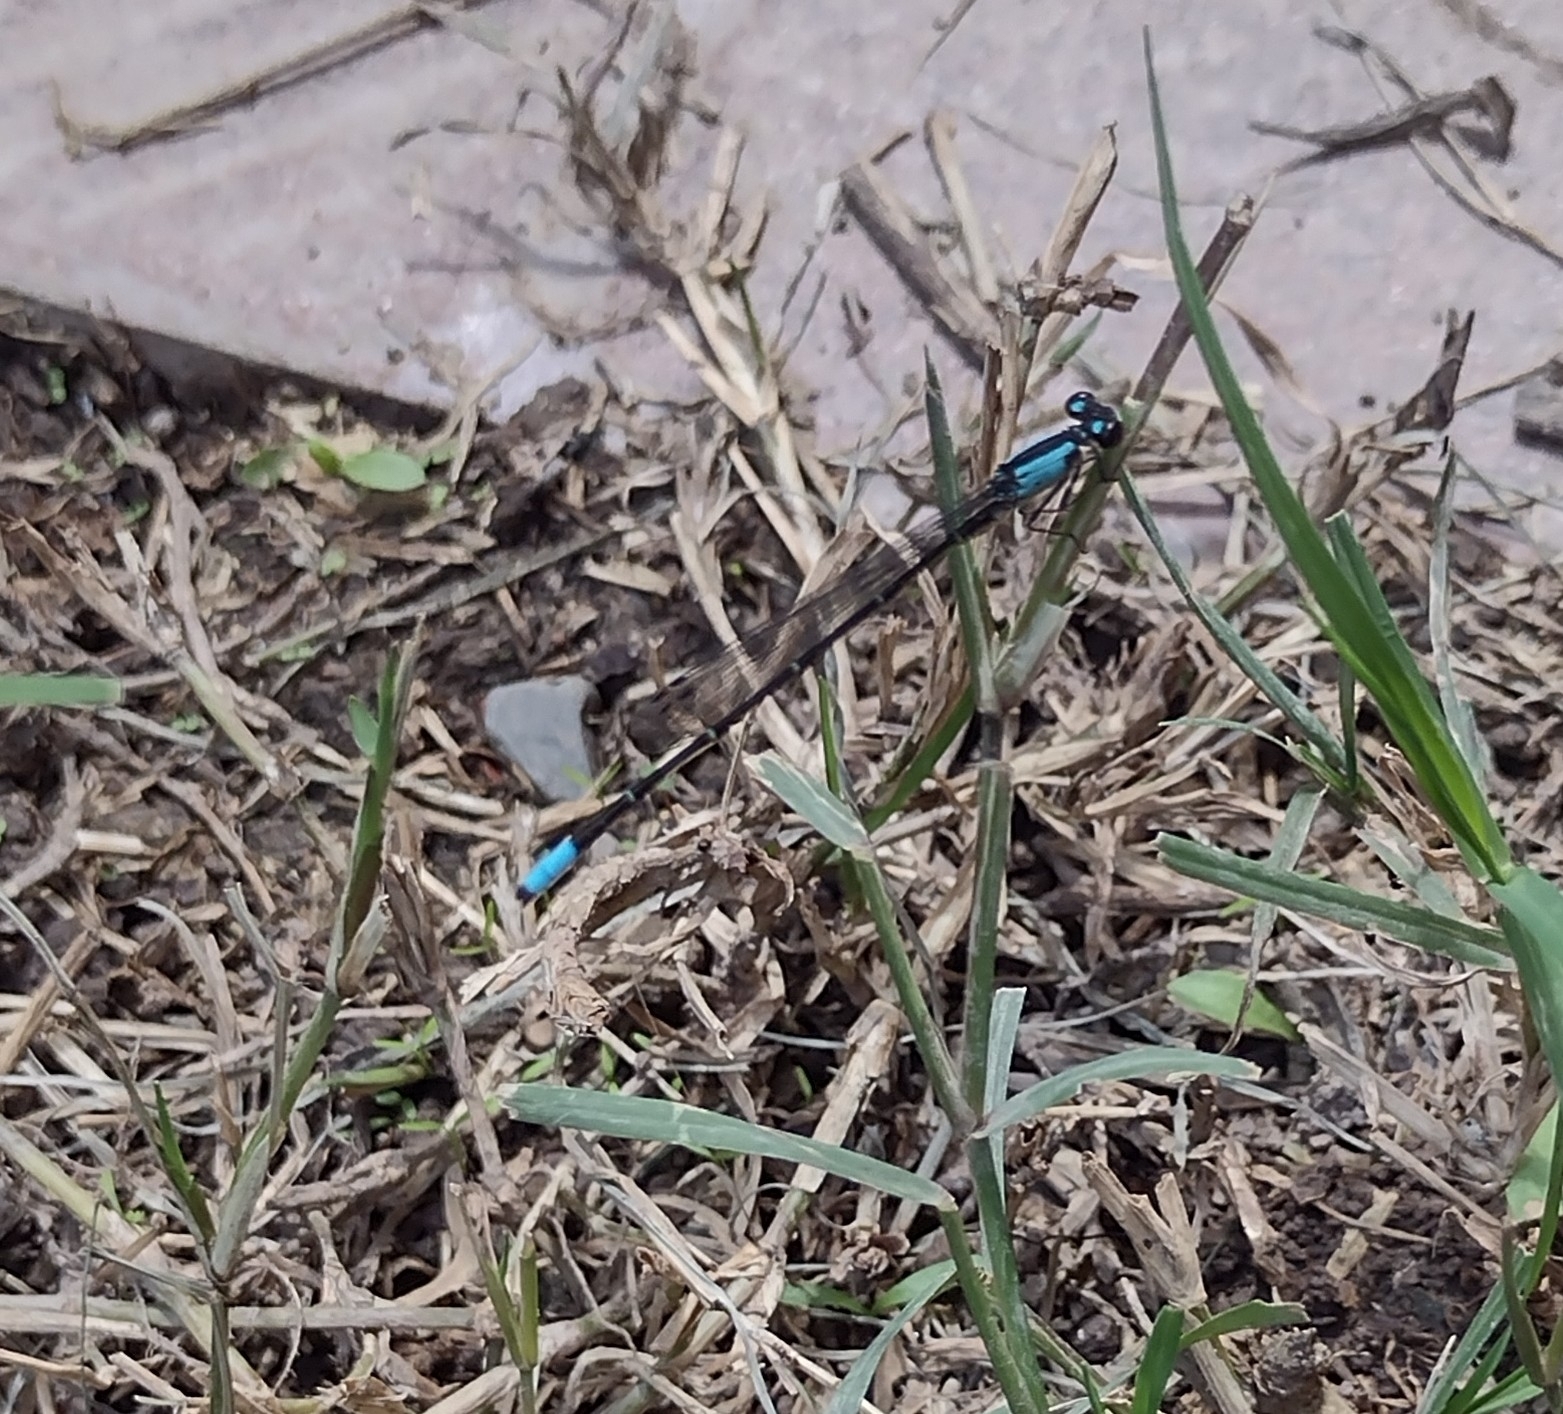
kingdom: Animalia
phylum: Arthropoda
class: Insecta
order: Odonata
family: Coenagrionidae
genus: Oxyagrion
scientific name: Oxyagrion ablutum
